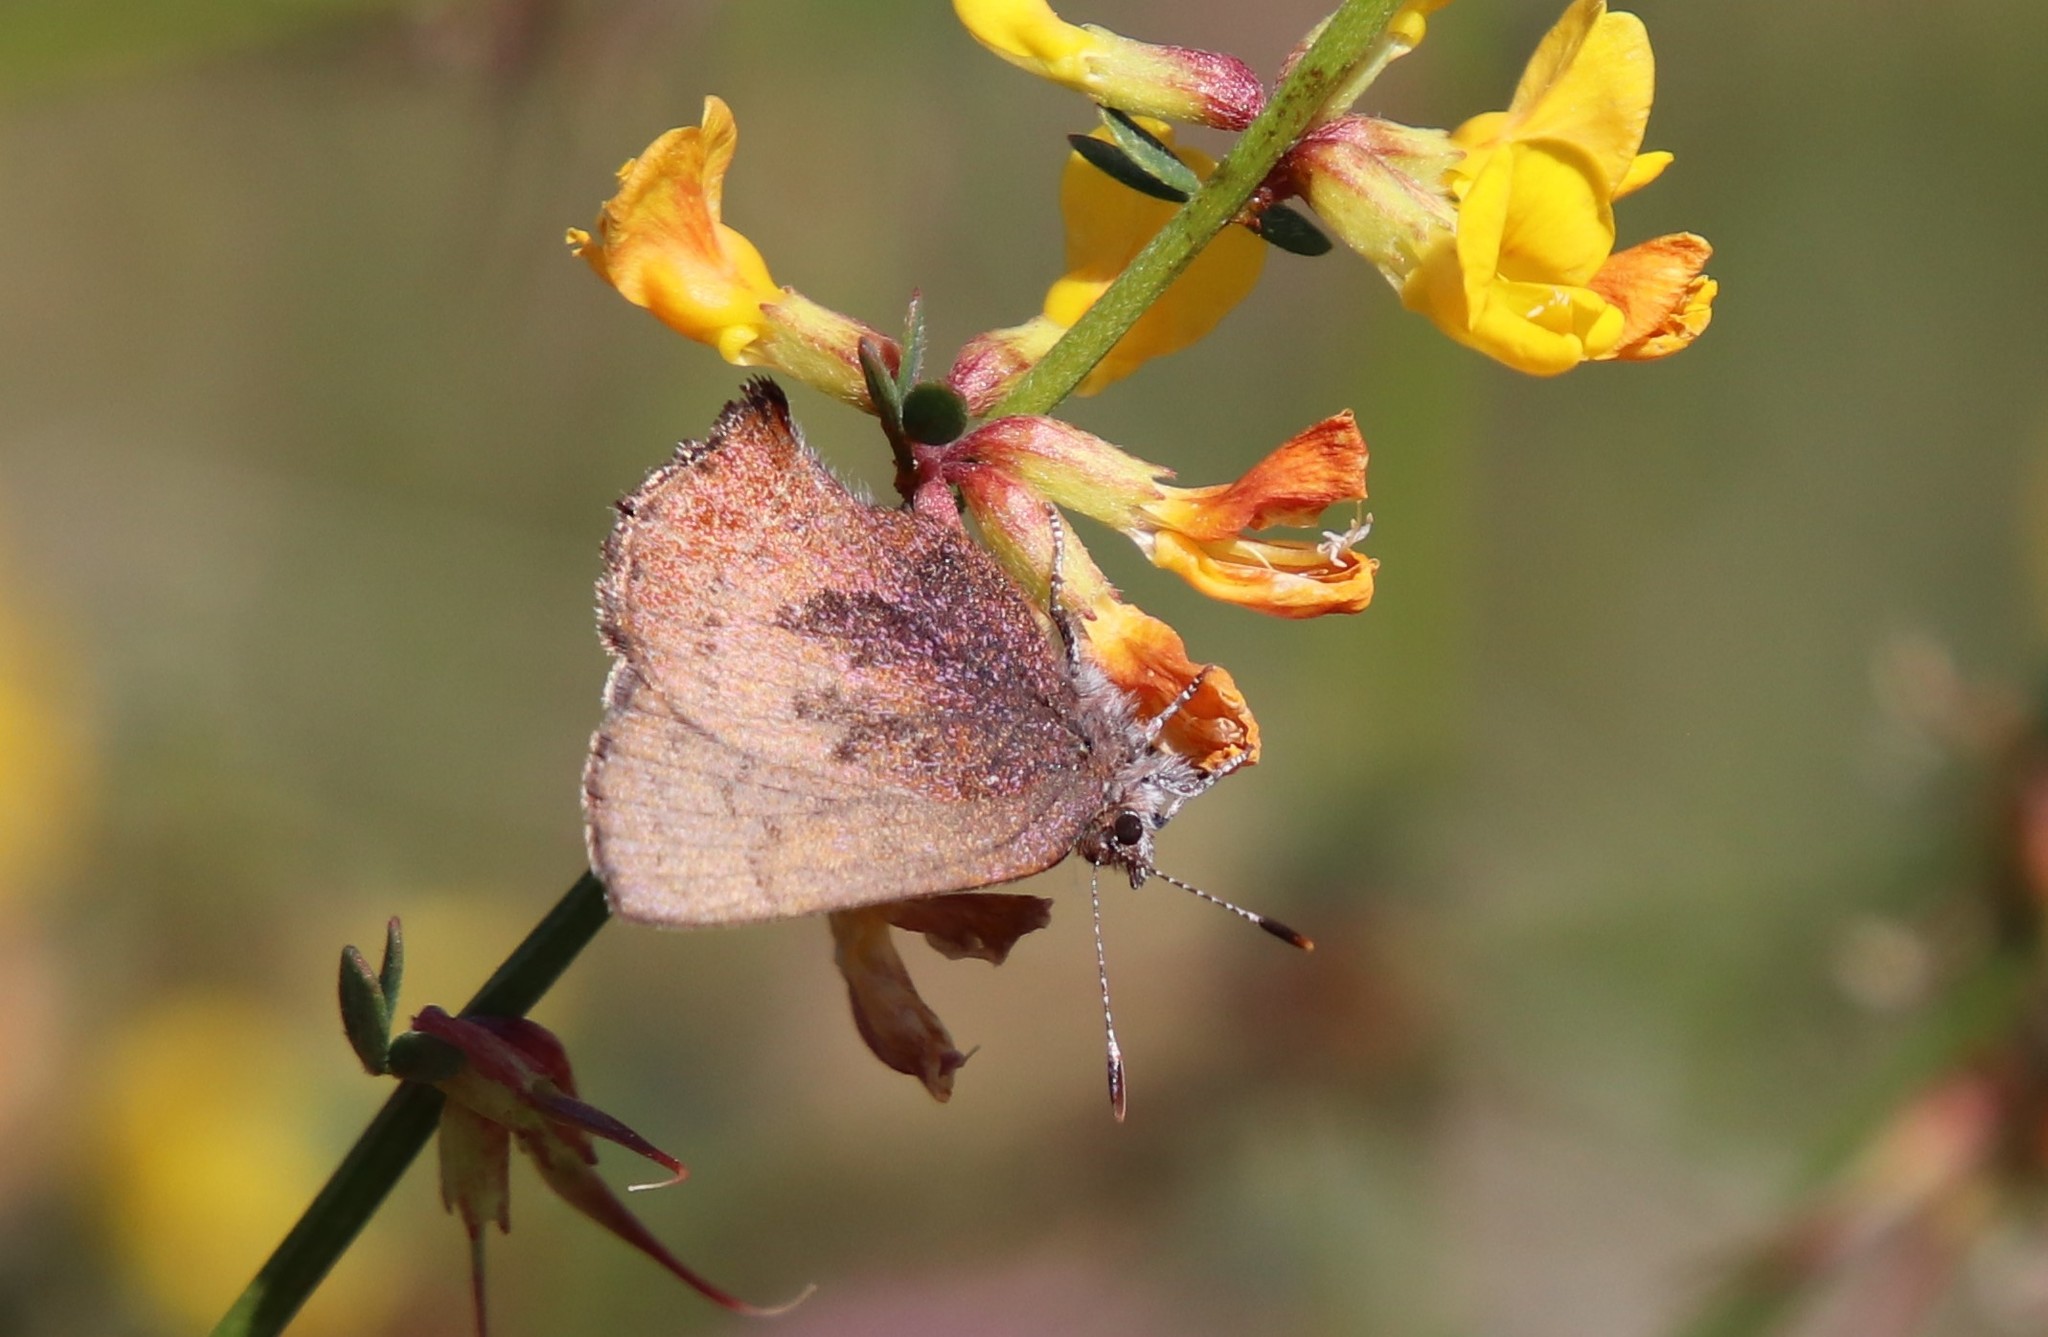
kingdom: Animalia
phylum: Arthropoda
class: Insecta
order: Lepidoptera
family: Lycaenidae
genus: Incisalia
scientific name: Incisalia irioides
